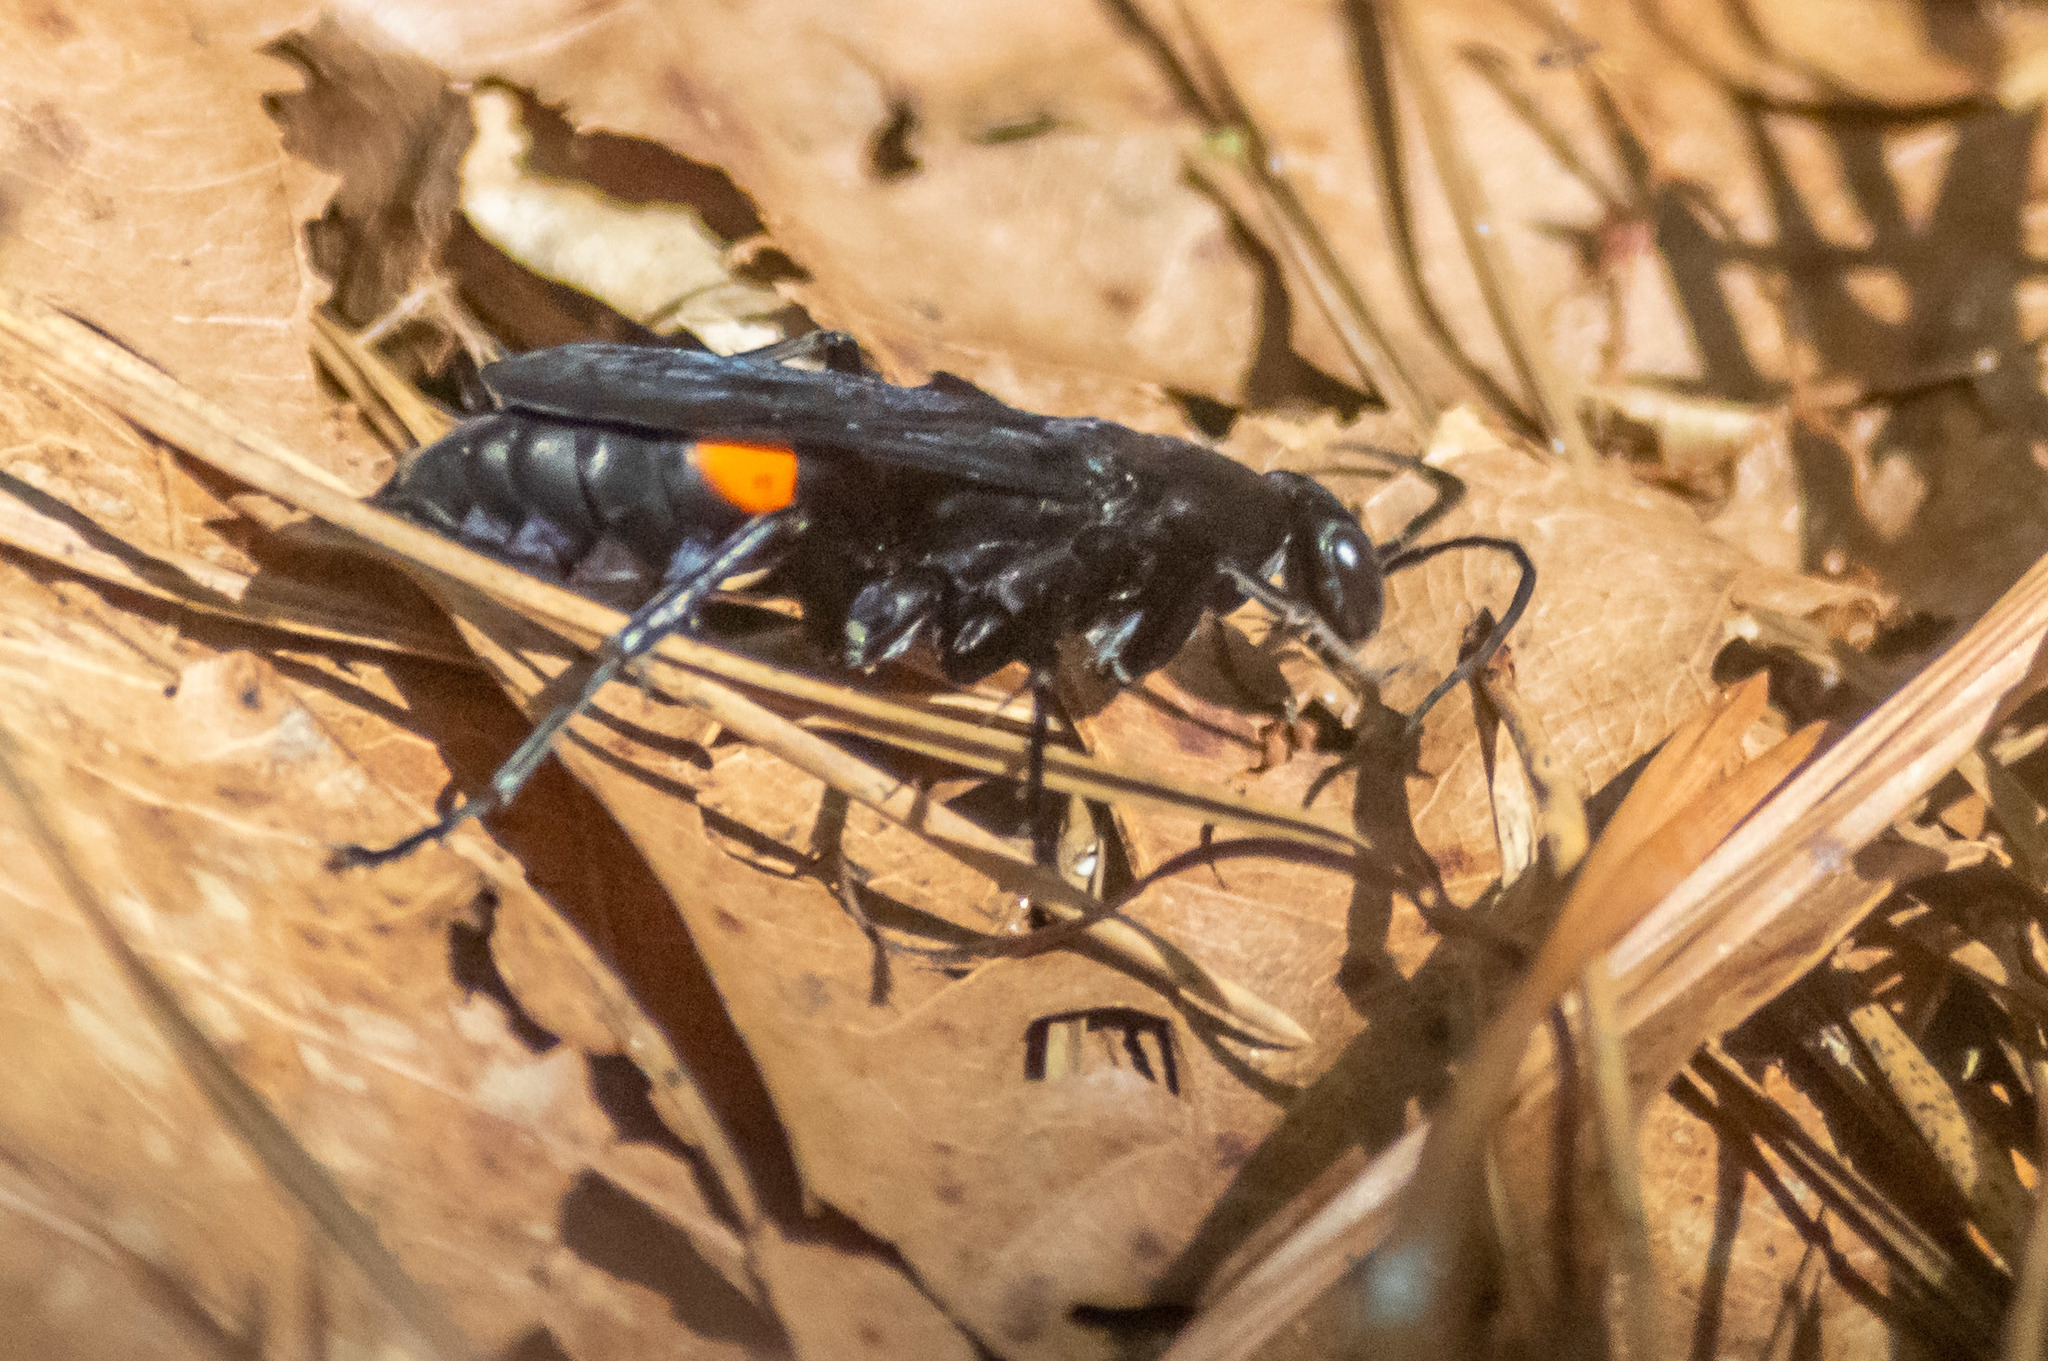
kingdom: Animalia
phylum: Arthropoda
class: Insecta
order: Hymenoptera
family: Pompilidae
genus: Psorthaspis
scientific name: Psorthaspis brimleyi
